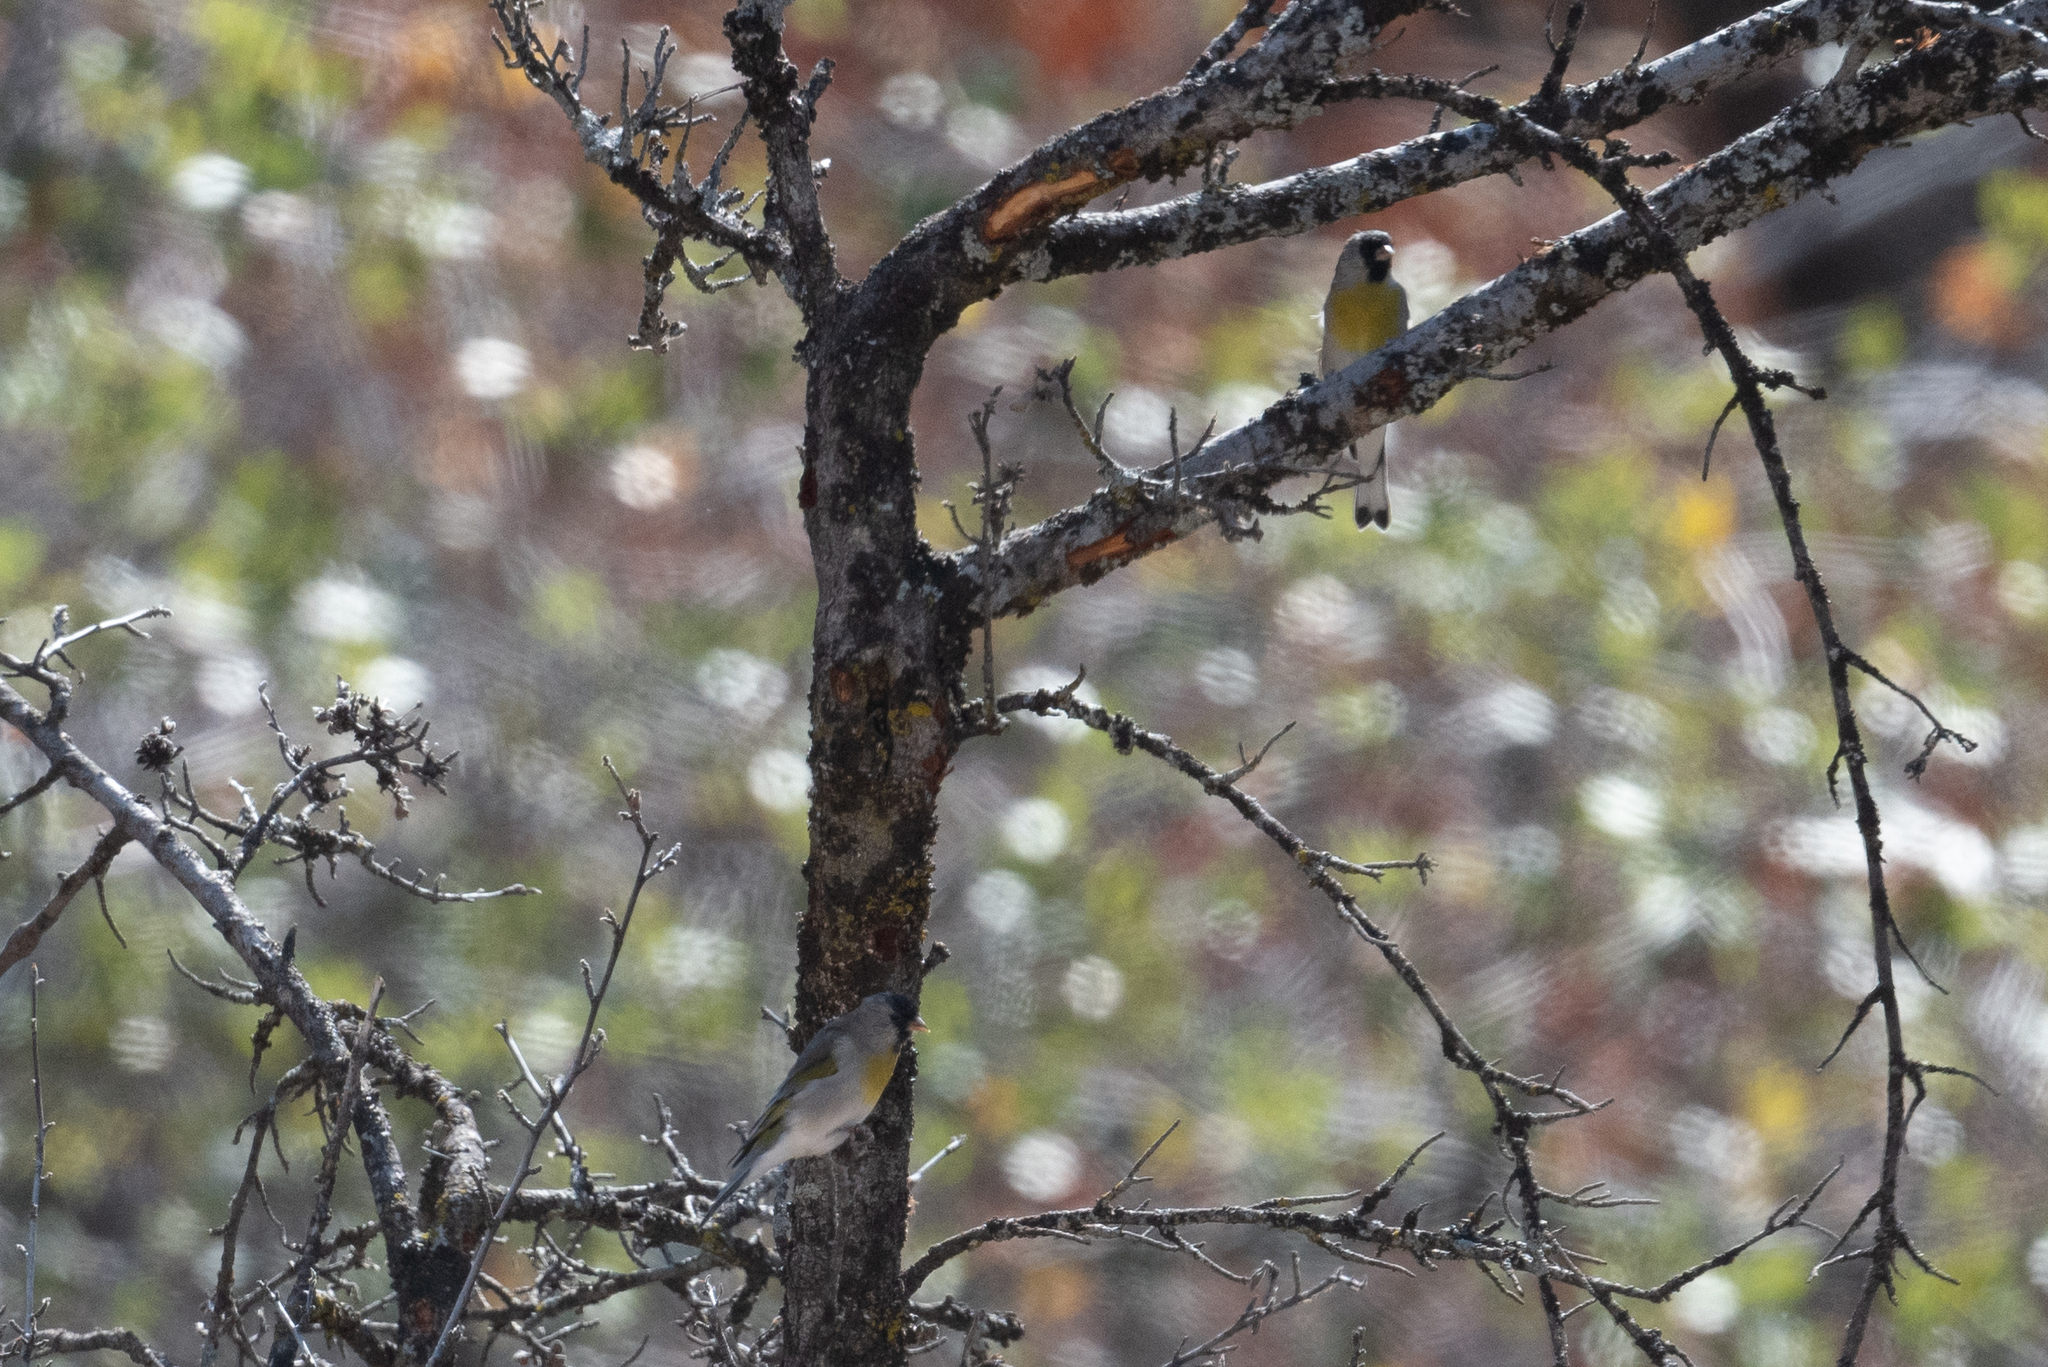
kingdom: Animalia
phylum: Chordata
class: Aves
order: Passeriformes
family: Fringillidae
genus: Spinus
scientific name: Spinus lawrencei
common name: Lawrence's goldfinch
